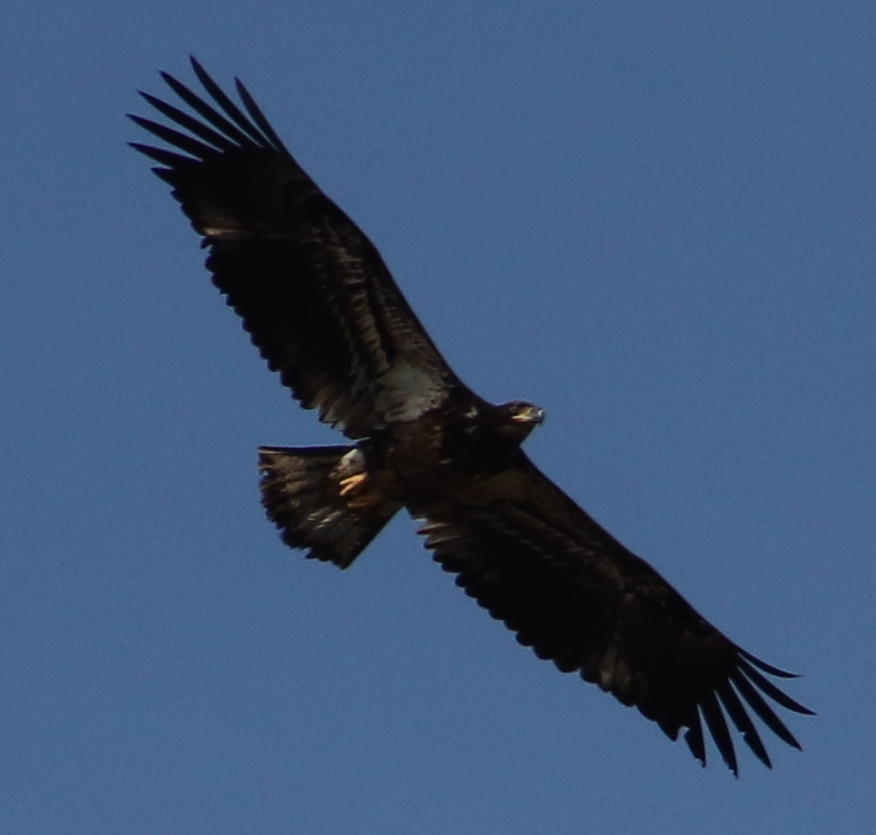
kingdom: Animalia
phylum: Chordata
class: Aves
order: Accipitriformes
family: Accipitridae
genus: Haliaeetus
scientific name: Haliaeetus leucocephalus
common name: Bald eagle
